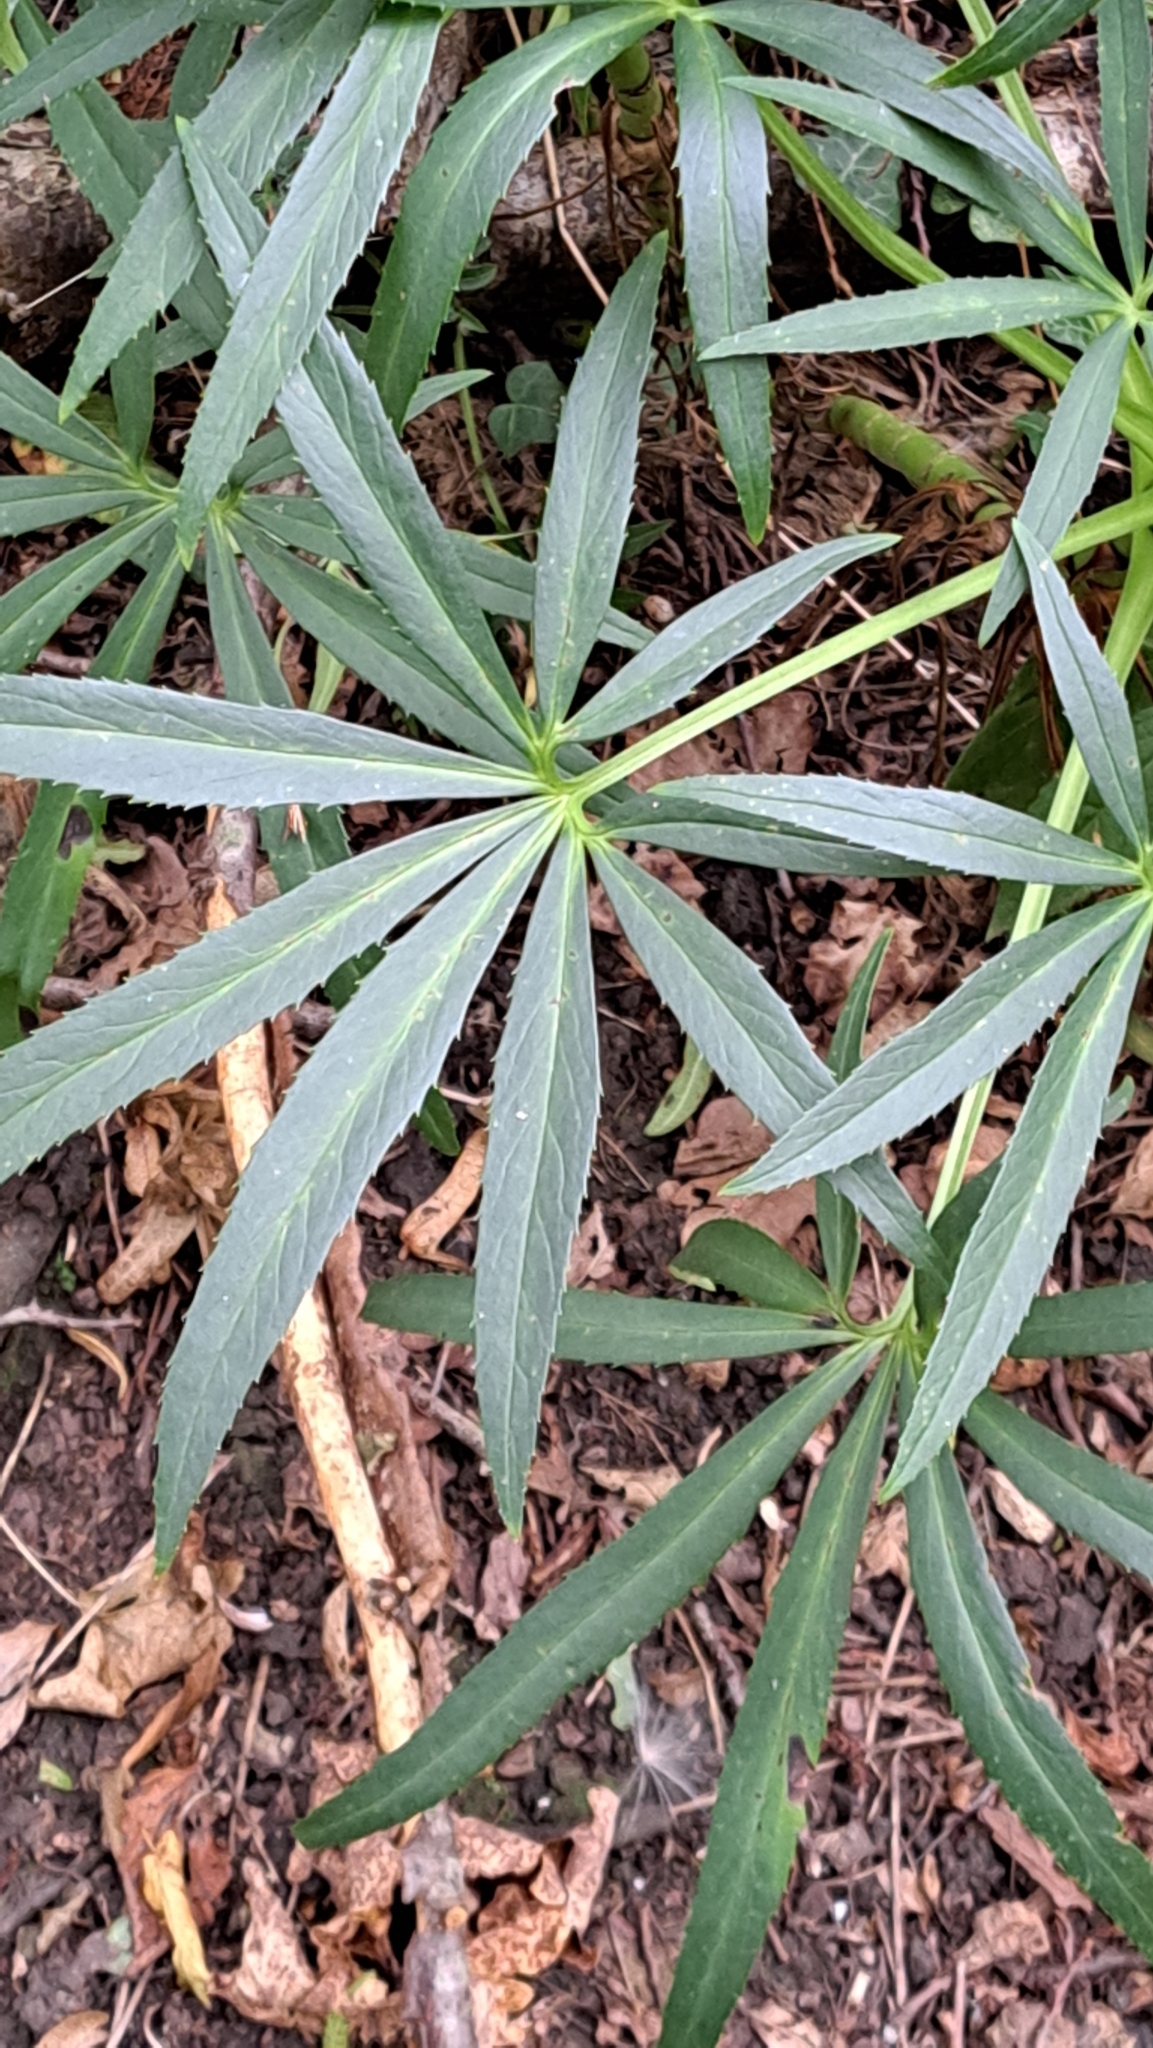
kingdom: Plantae
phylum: Tracheophyta
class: Magnoliopsida
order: Ranunculales
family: Ranunculaceae
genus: Helleborus
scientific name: Helleborus foetidus
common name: Stinking hellebore
